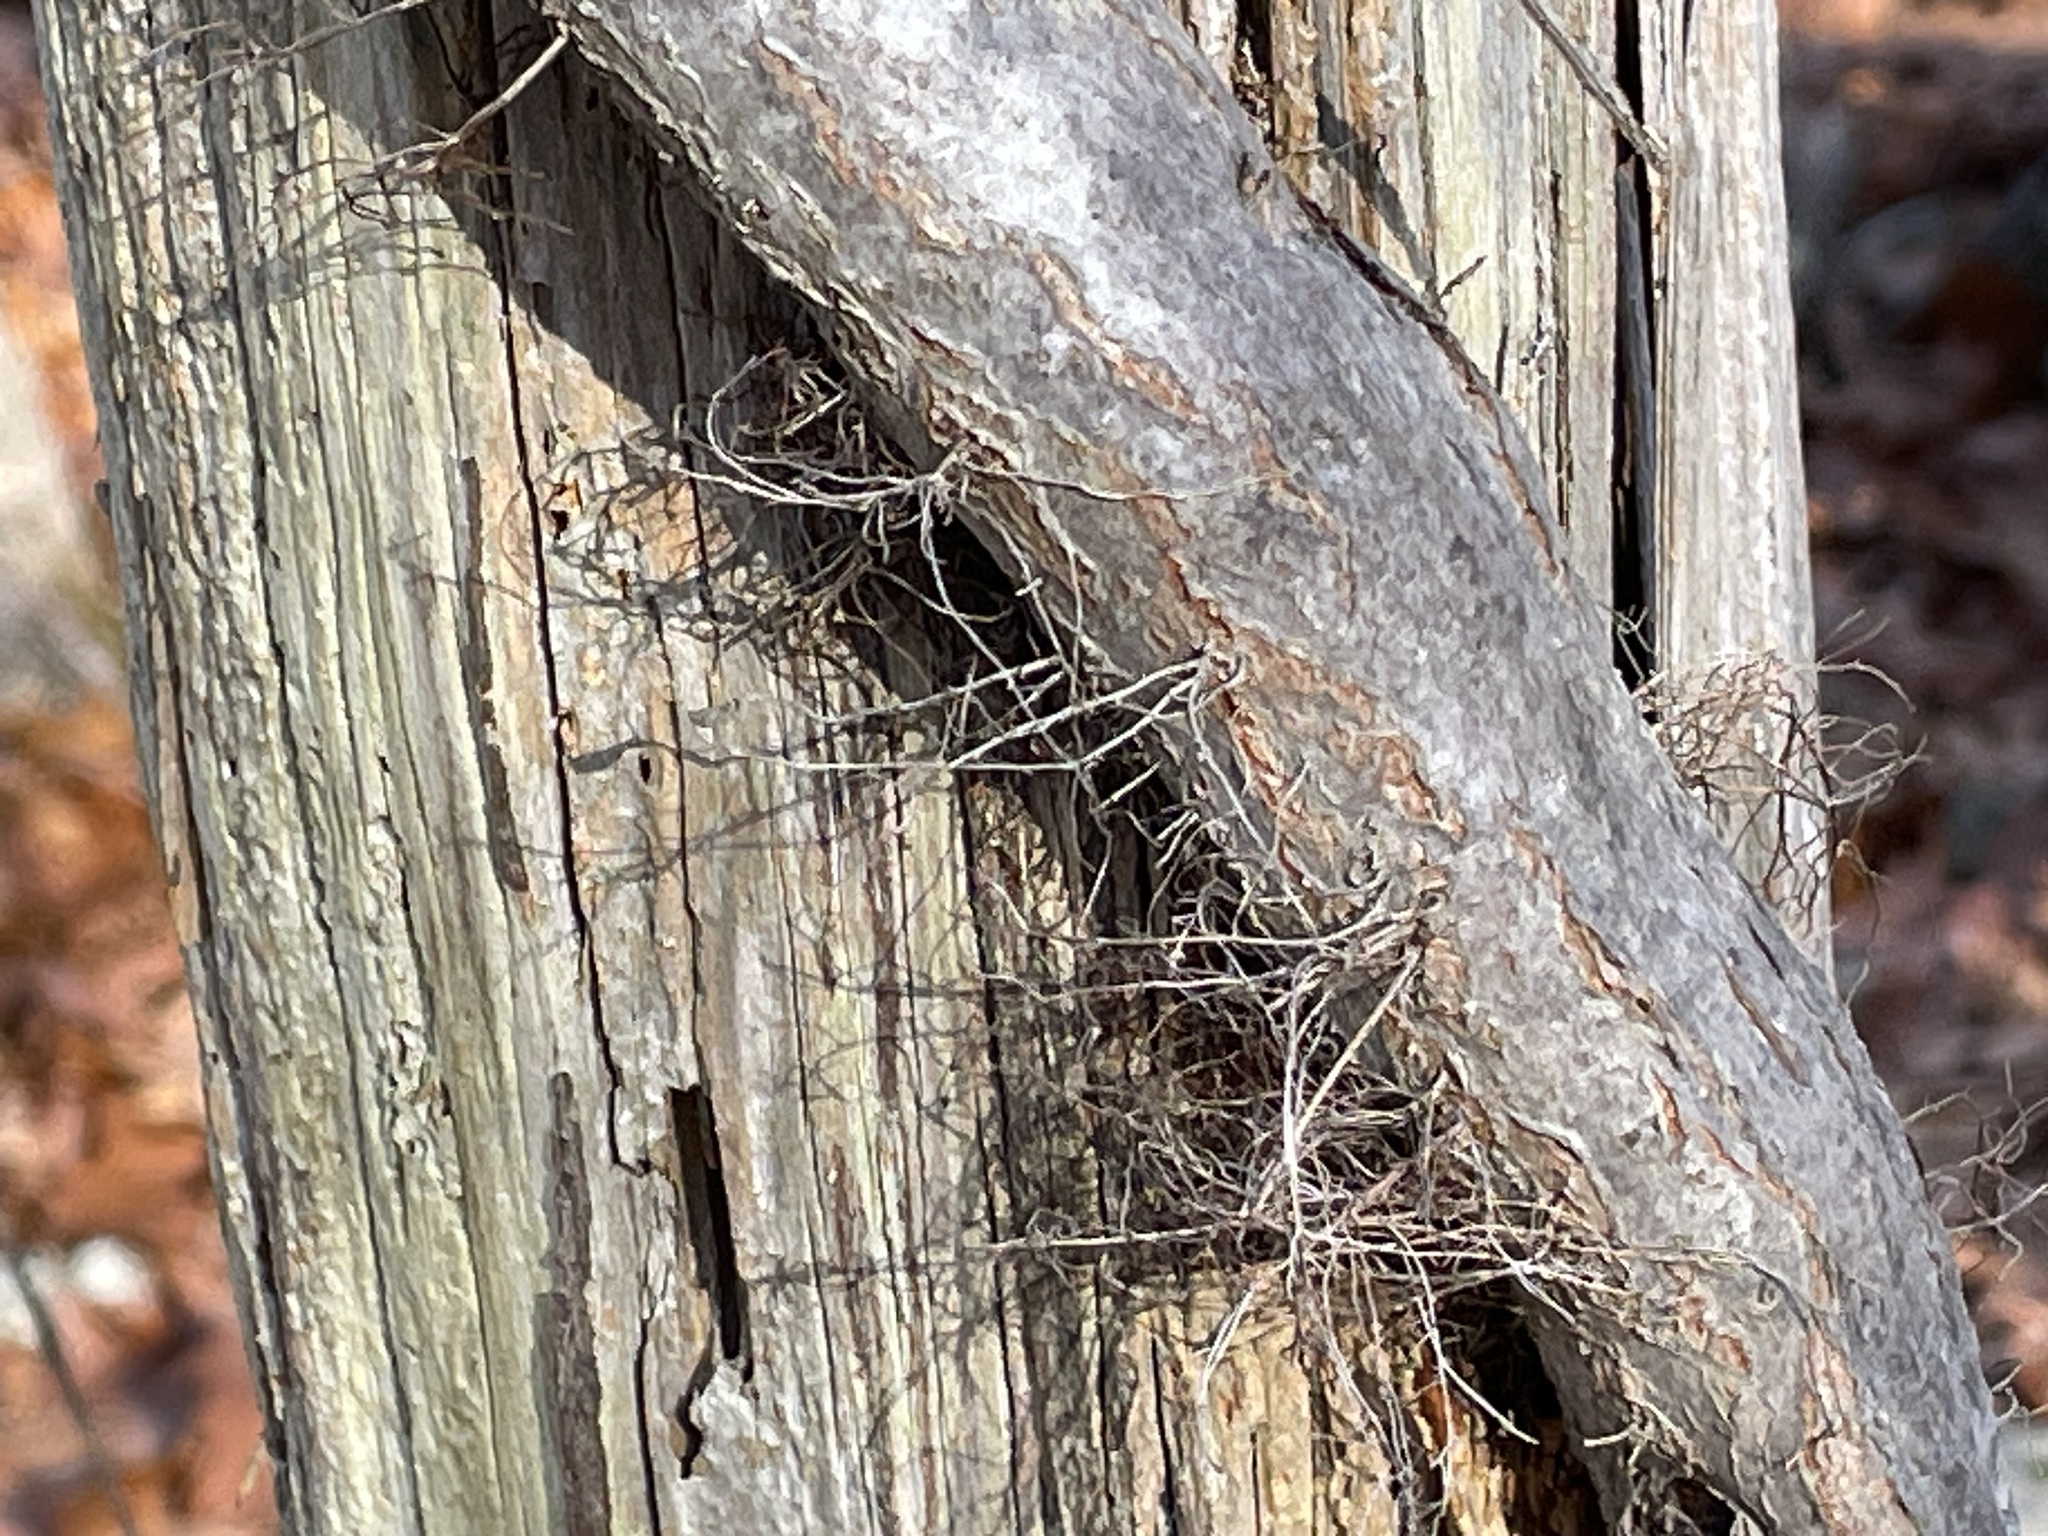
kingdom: Plantae
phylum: Tracheophyta
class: Magnoliopsida
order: Sapindales
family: Anacardiaceae
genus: Toxicodendron
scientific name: Toxicodendron radicans
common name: Poison ivy
